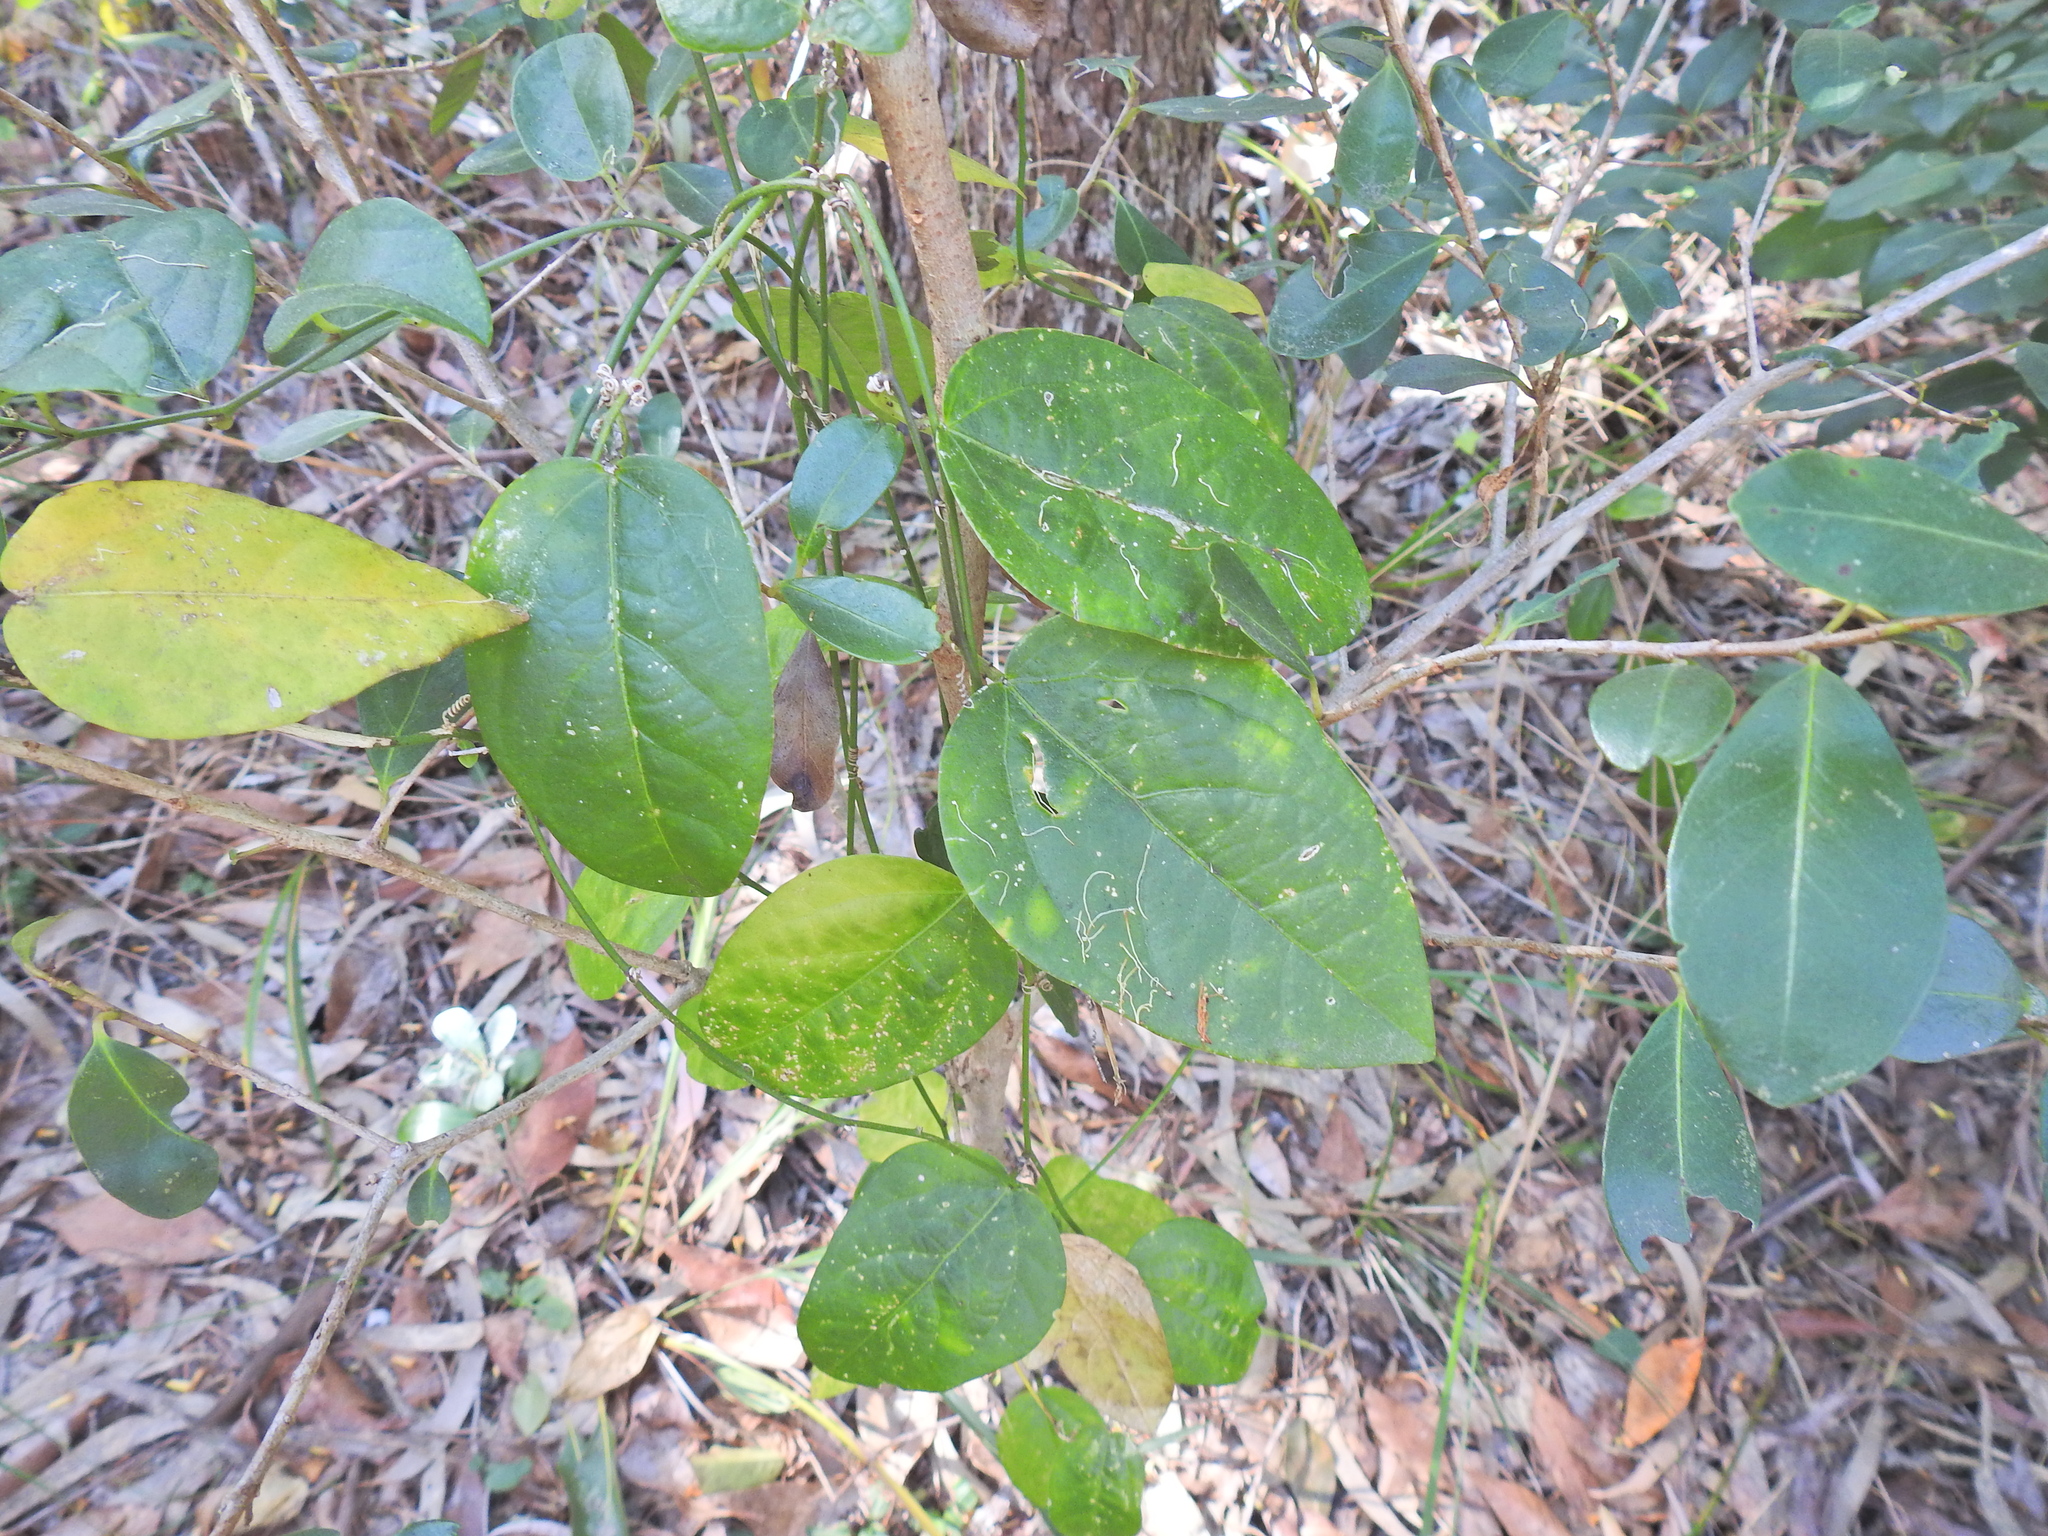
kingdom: Plantae
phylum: Tracheophyta
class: Magnoliopsida
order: Malpighiales
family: Passifloraceae
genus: Passiflora
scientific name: Passiflora pallida
